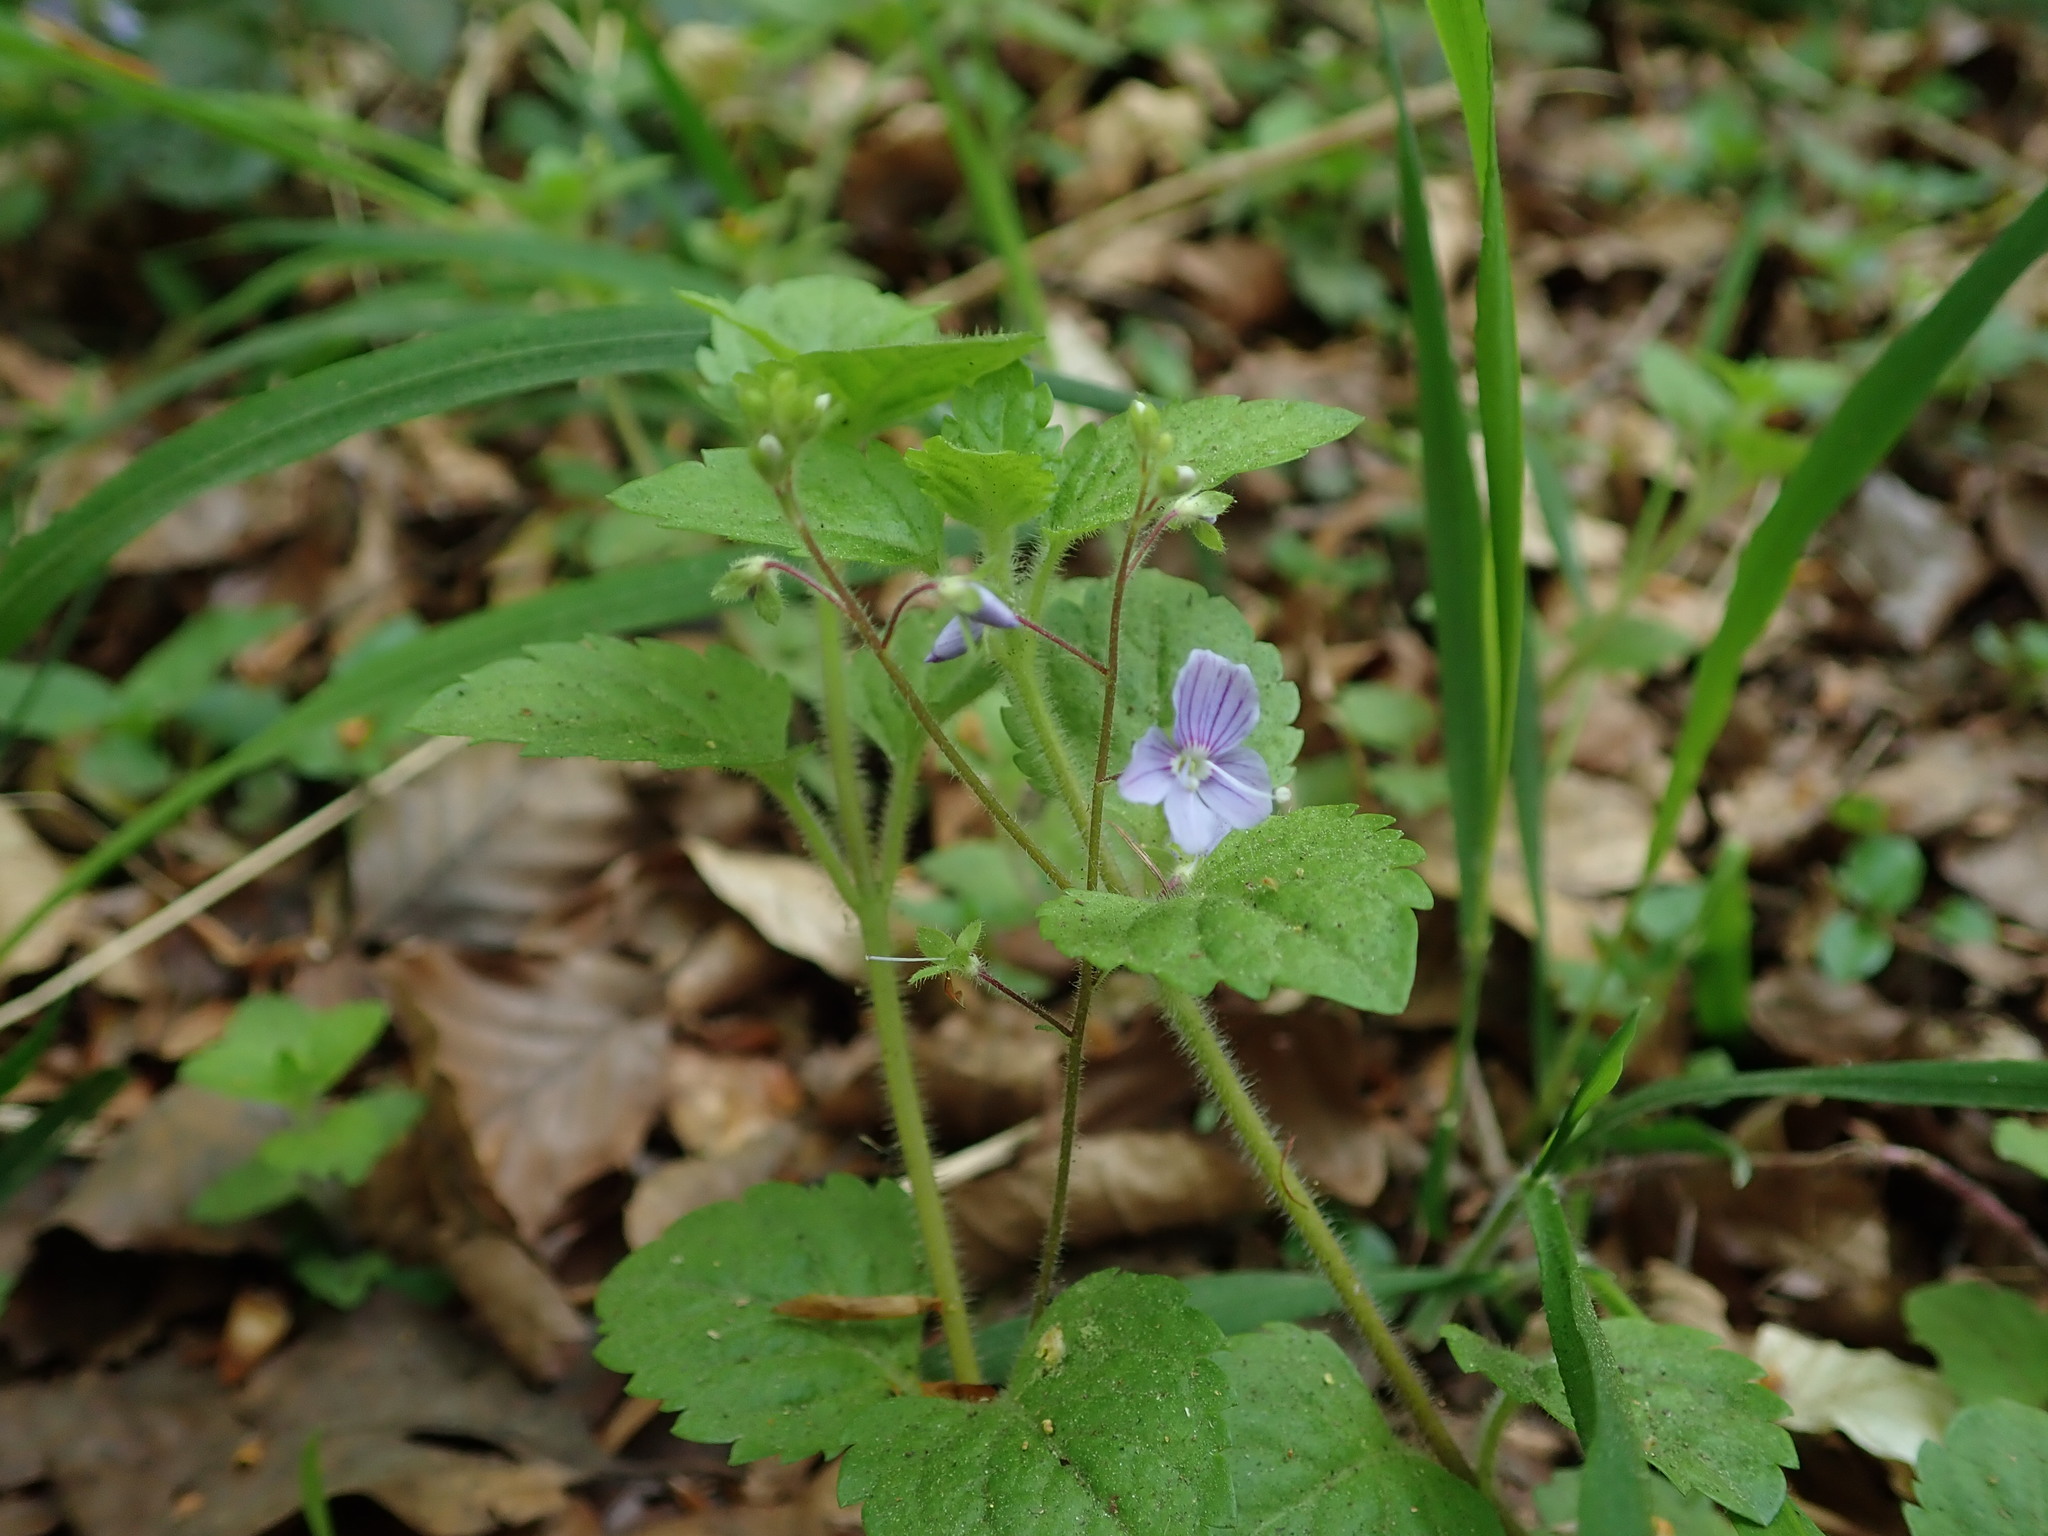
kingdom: Plantae
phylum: Tracheophyta
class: Magnoliopsida
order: Lamiales
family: Plantaginaceae
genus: Veronica
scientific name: Veronica montana
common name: Wood speedwell
